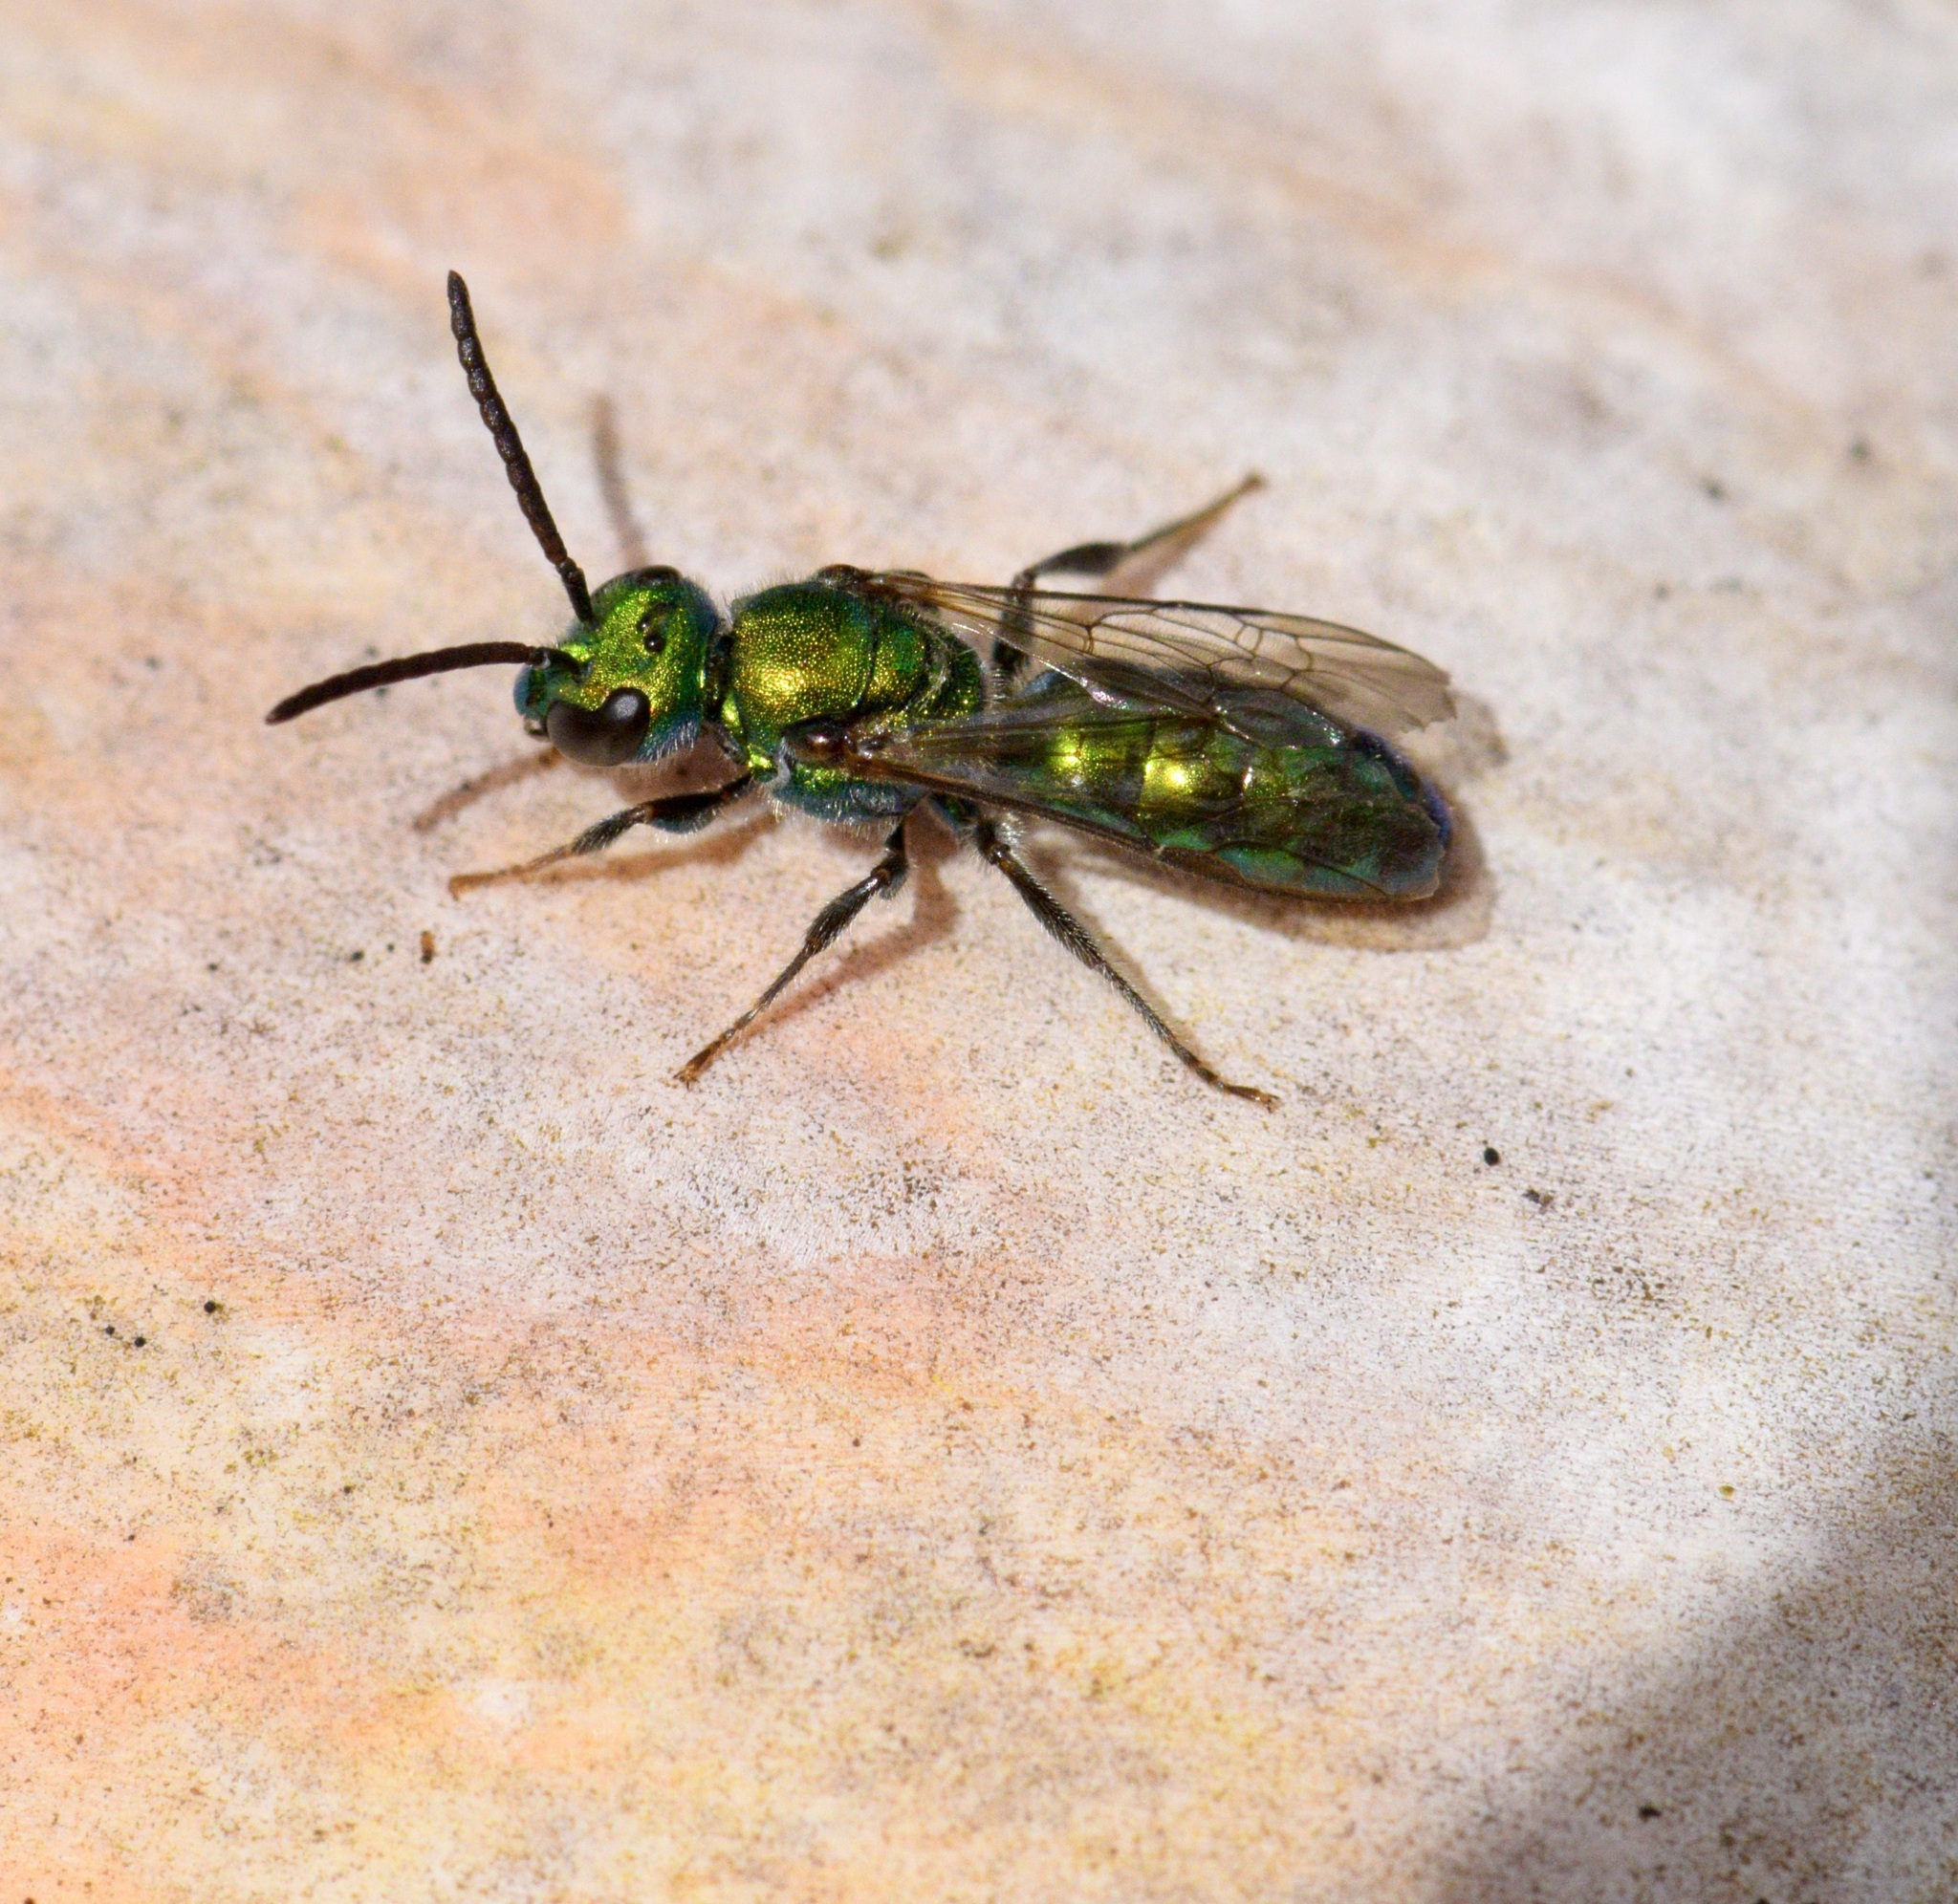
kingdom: Animalia
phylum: Arthropoda
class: Insecta
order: Hymenoptera
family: Halictidae
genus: Augochlora
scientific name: Augochlora pura
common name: Pure green sweat bee
